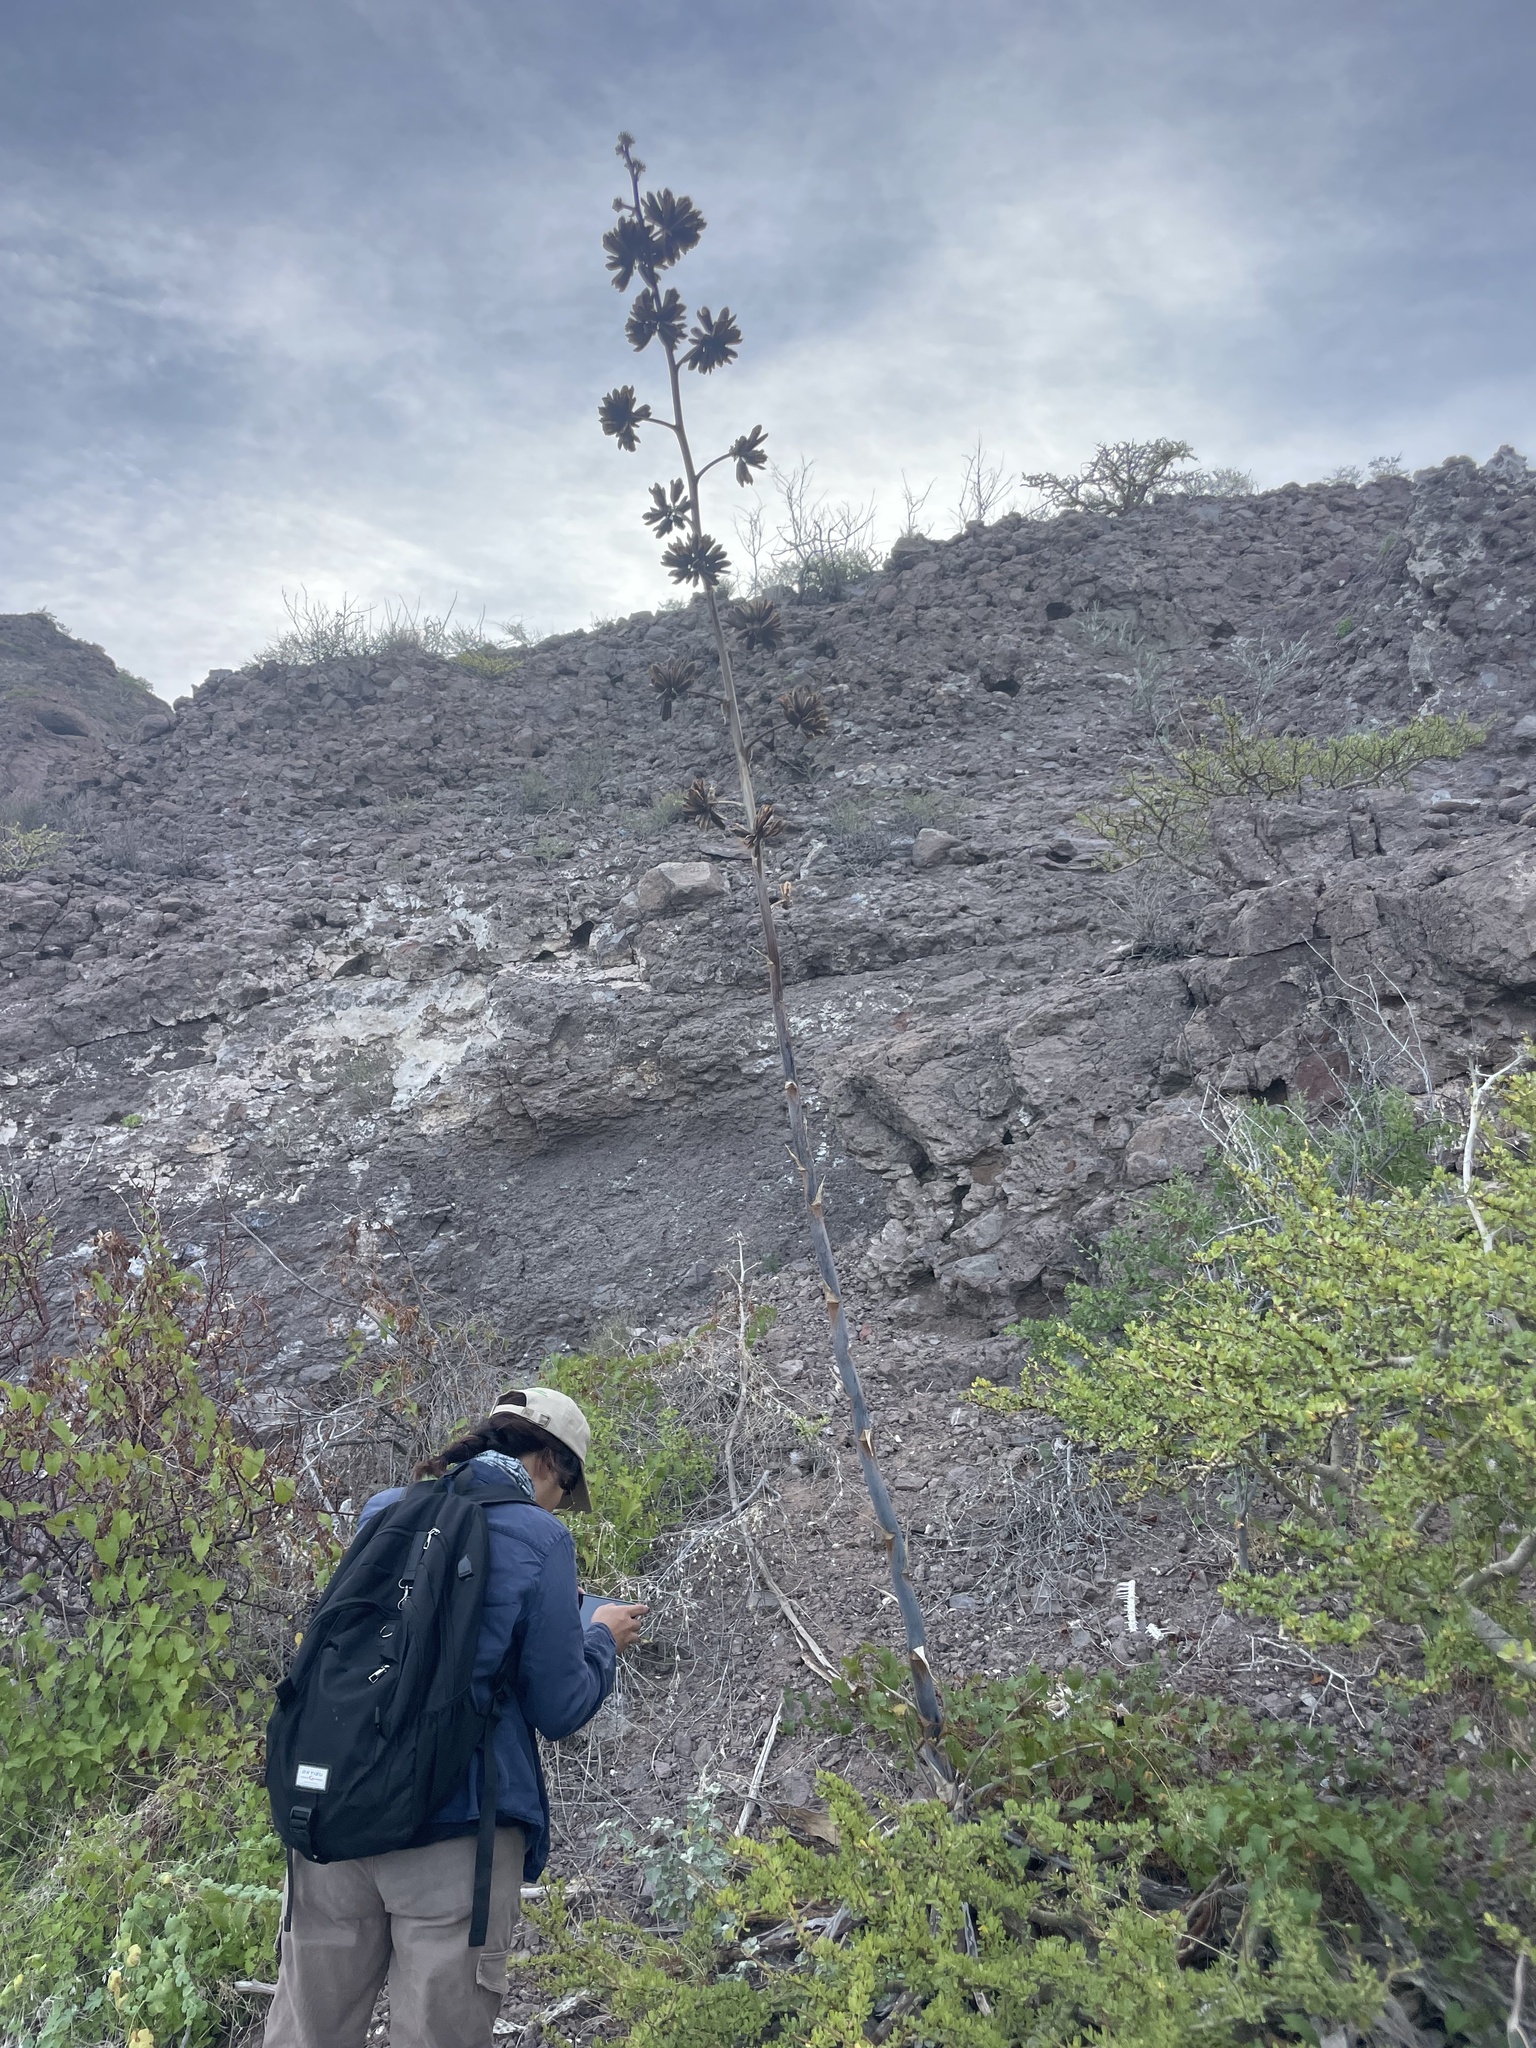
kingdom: Plantae
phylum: Tracheophyta
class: Liliopsida
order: Asparagales
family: Asparagaceae
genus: Agave
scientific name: Agave sobria
